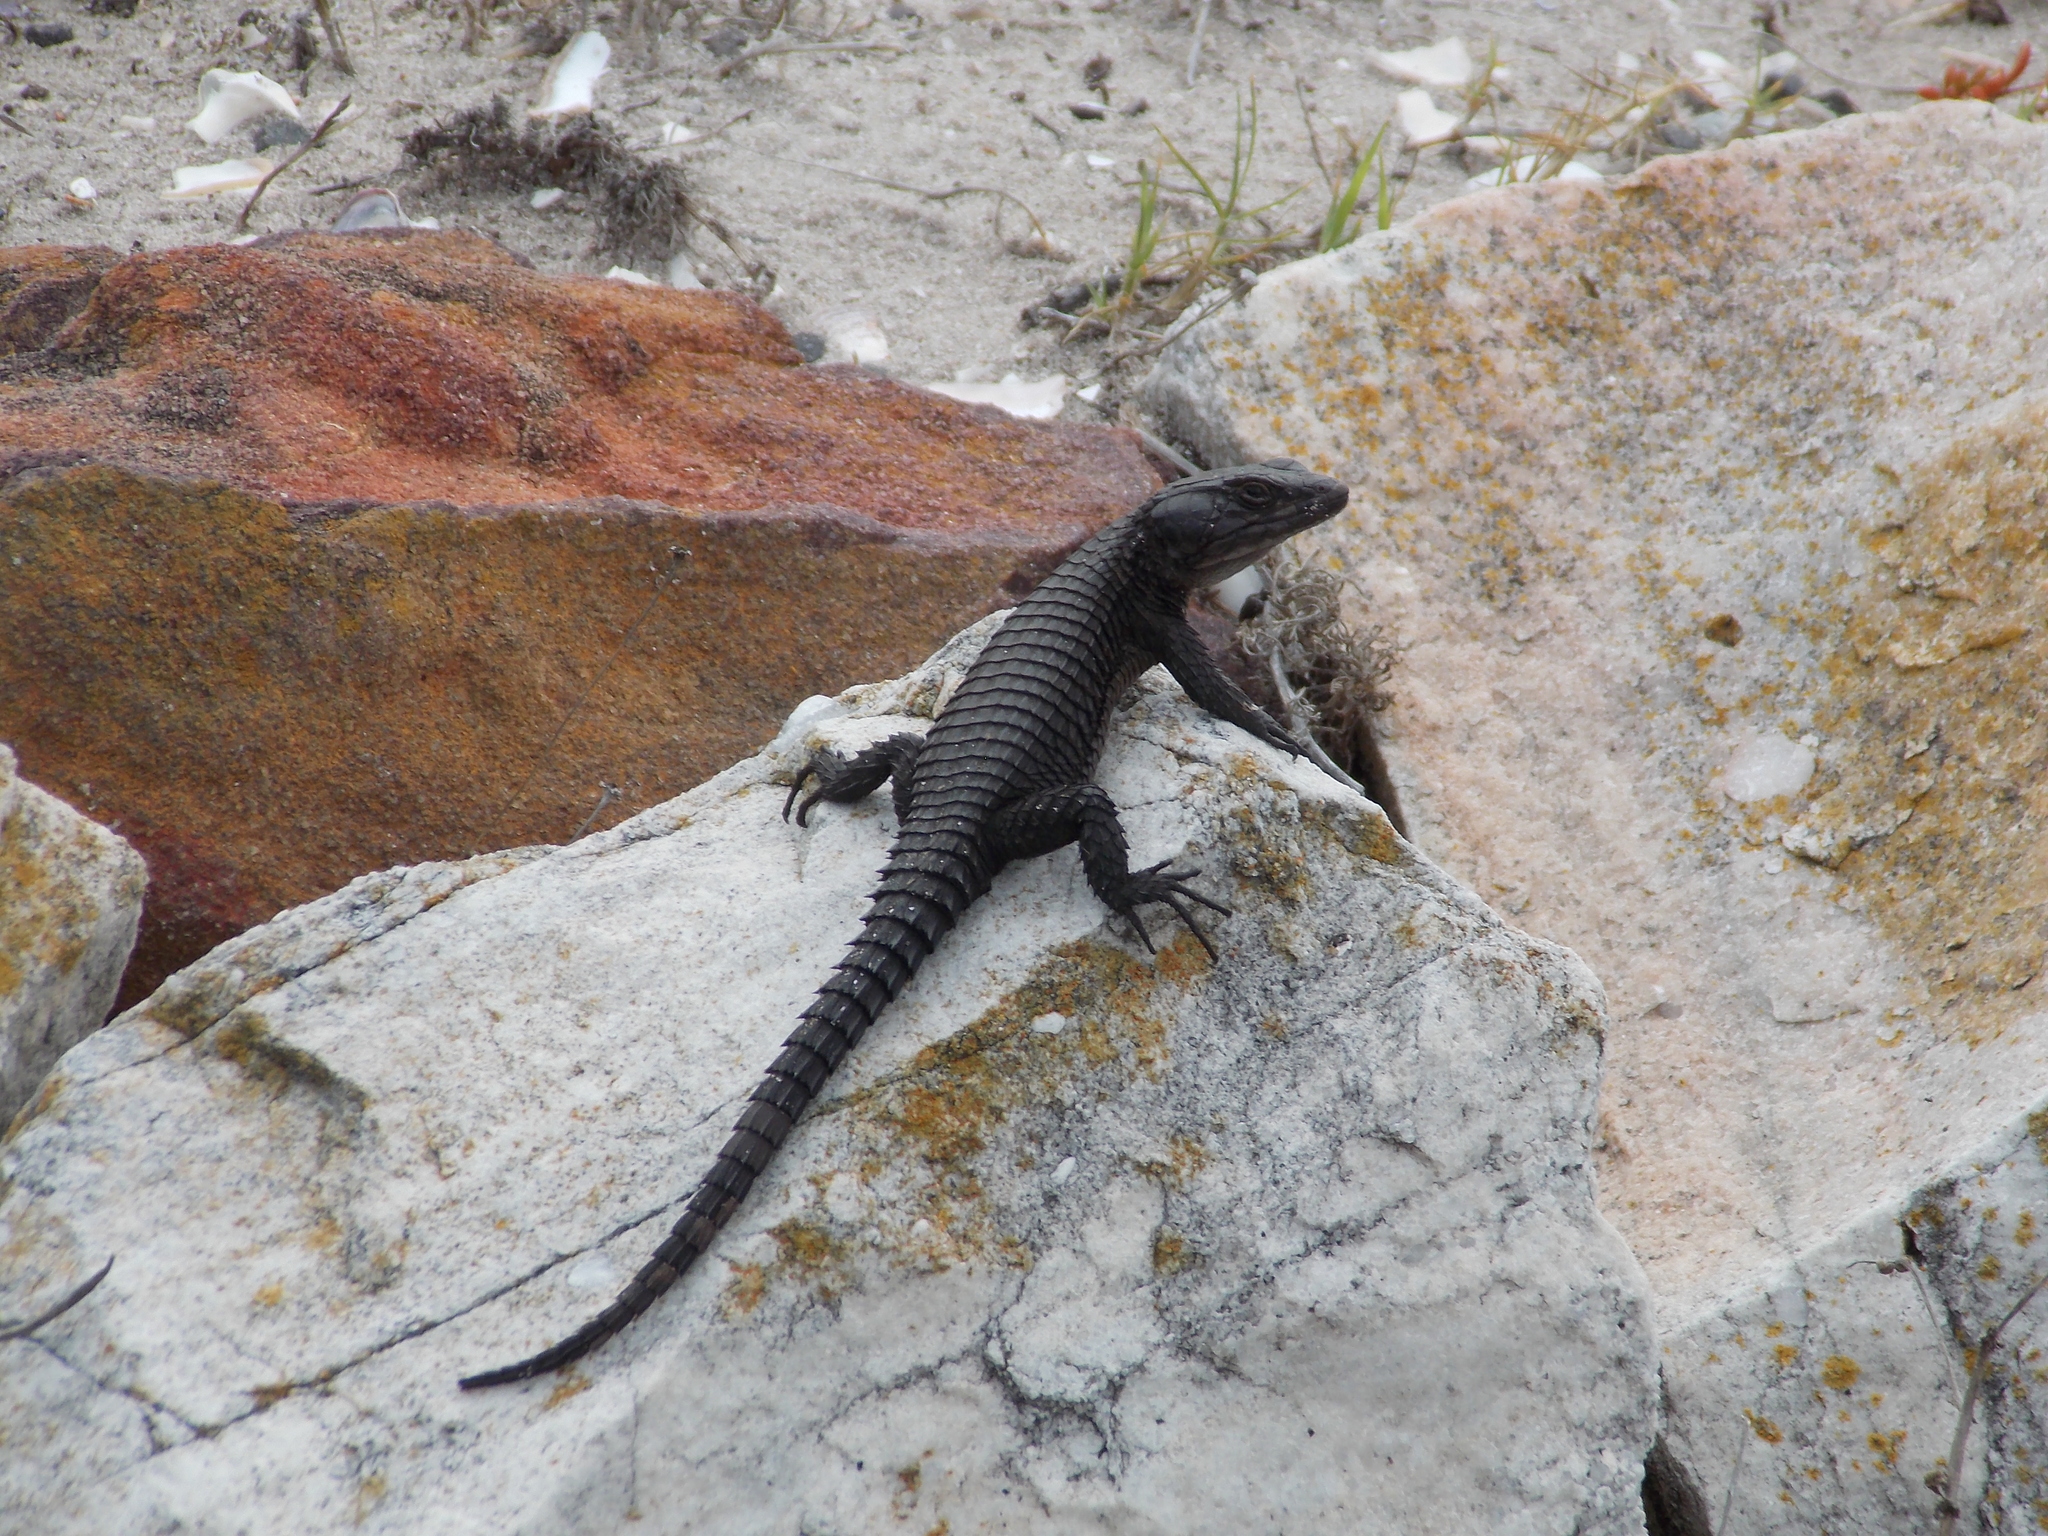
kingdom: Animalia
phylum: Chordata
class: Squamata
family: Cordylidae
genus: Cordylus
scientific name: Cordylus niger
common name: Black girdled lizard
